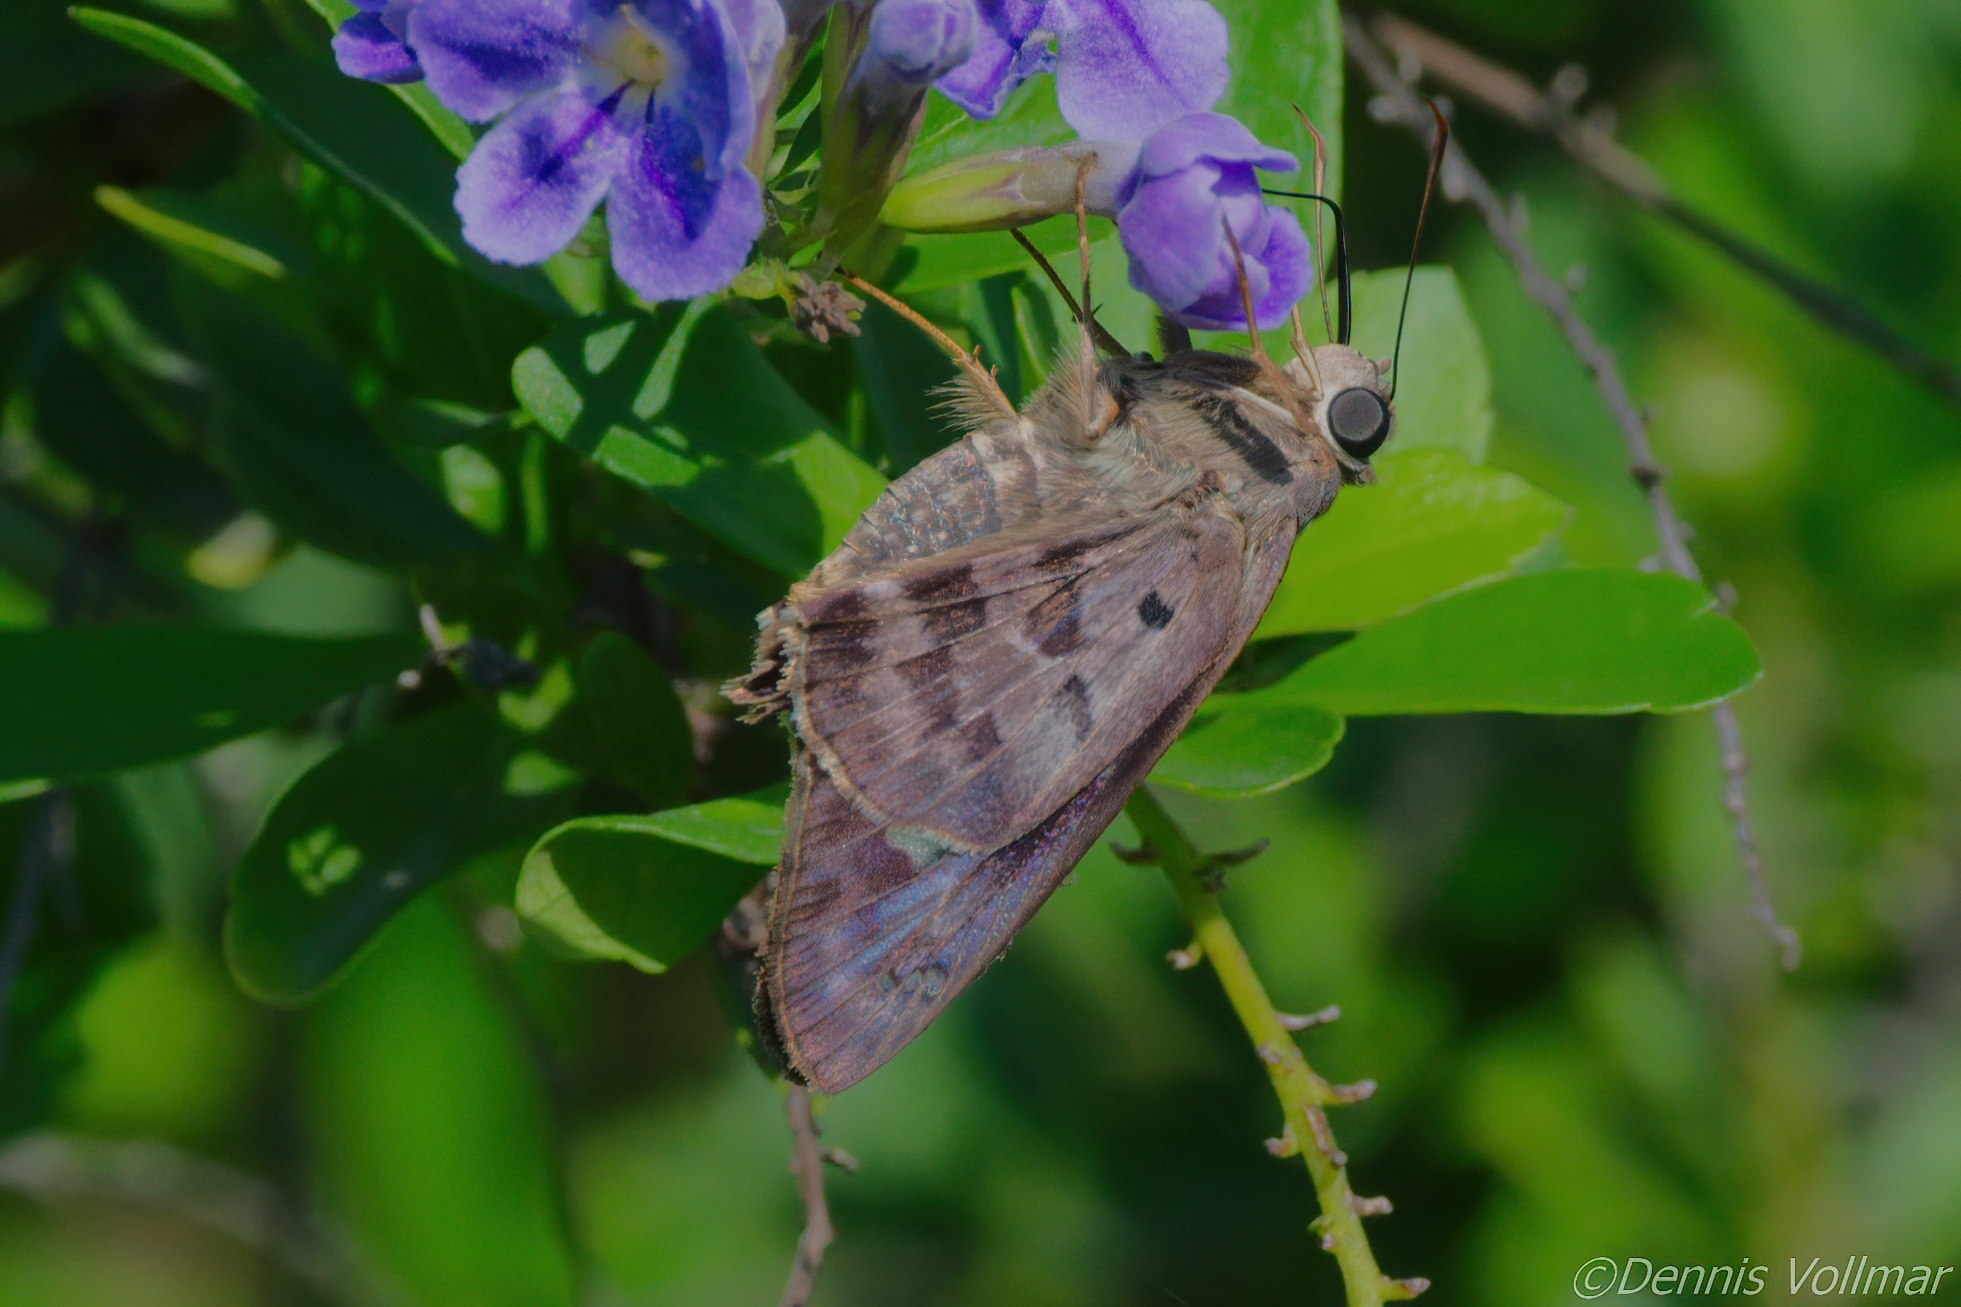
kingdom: Animalia
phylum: Arthropoda
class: Insecta
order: Lepidoptera
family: Hesperiidae
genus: Polygonus
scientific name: Polygonus leo
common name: Hammoch skipper
